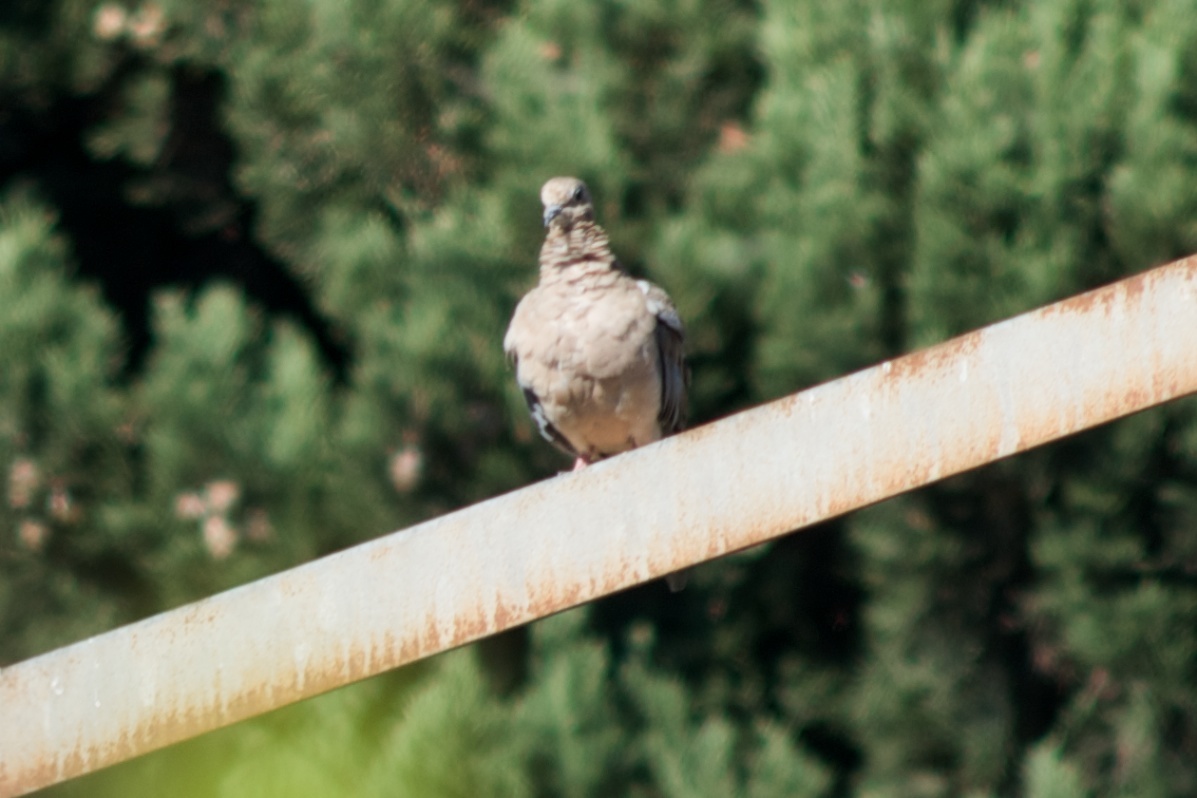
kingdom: Animalia
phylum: Chordata
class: Aves
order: Columbiformes
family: Columbidae
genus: Zenaida
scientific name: Zenaida macroura
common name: Mourning dove
